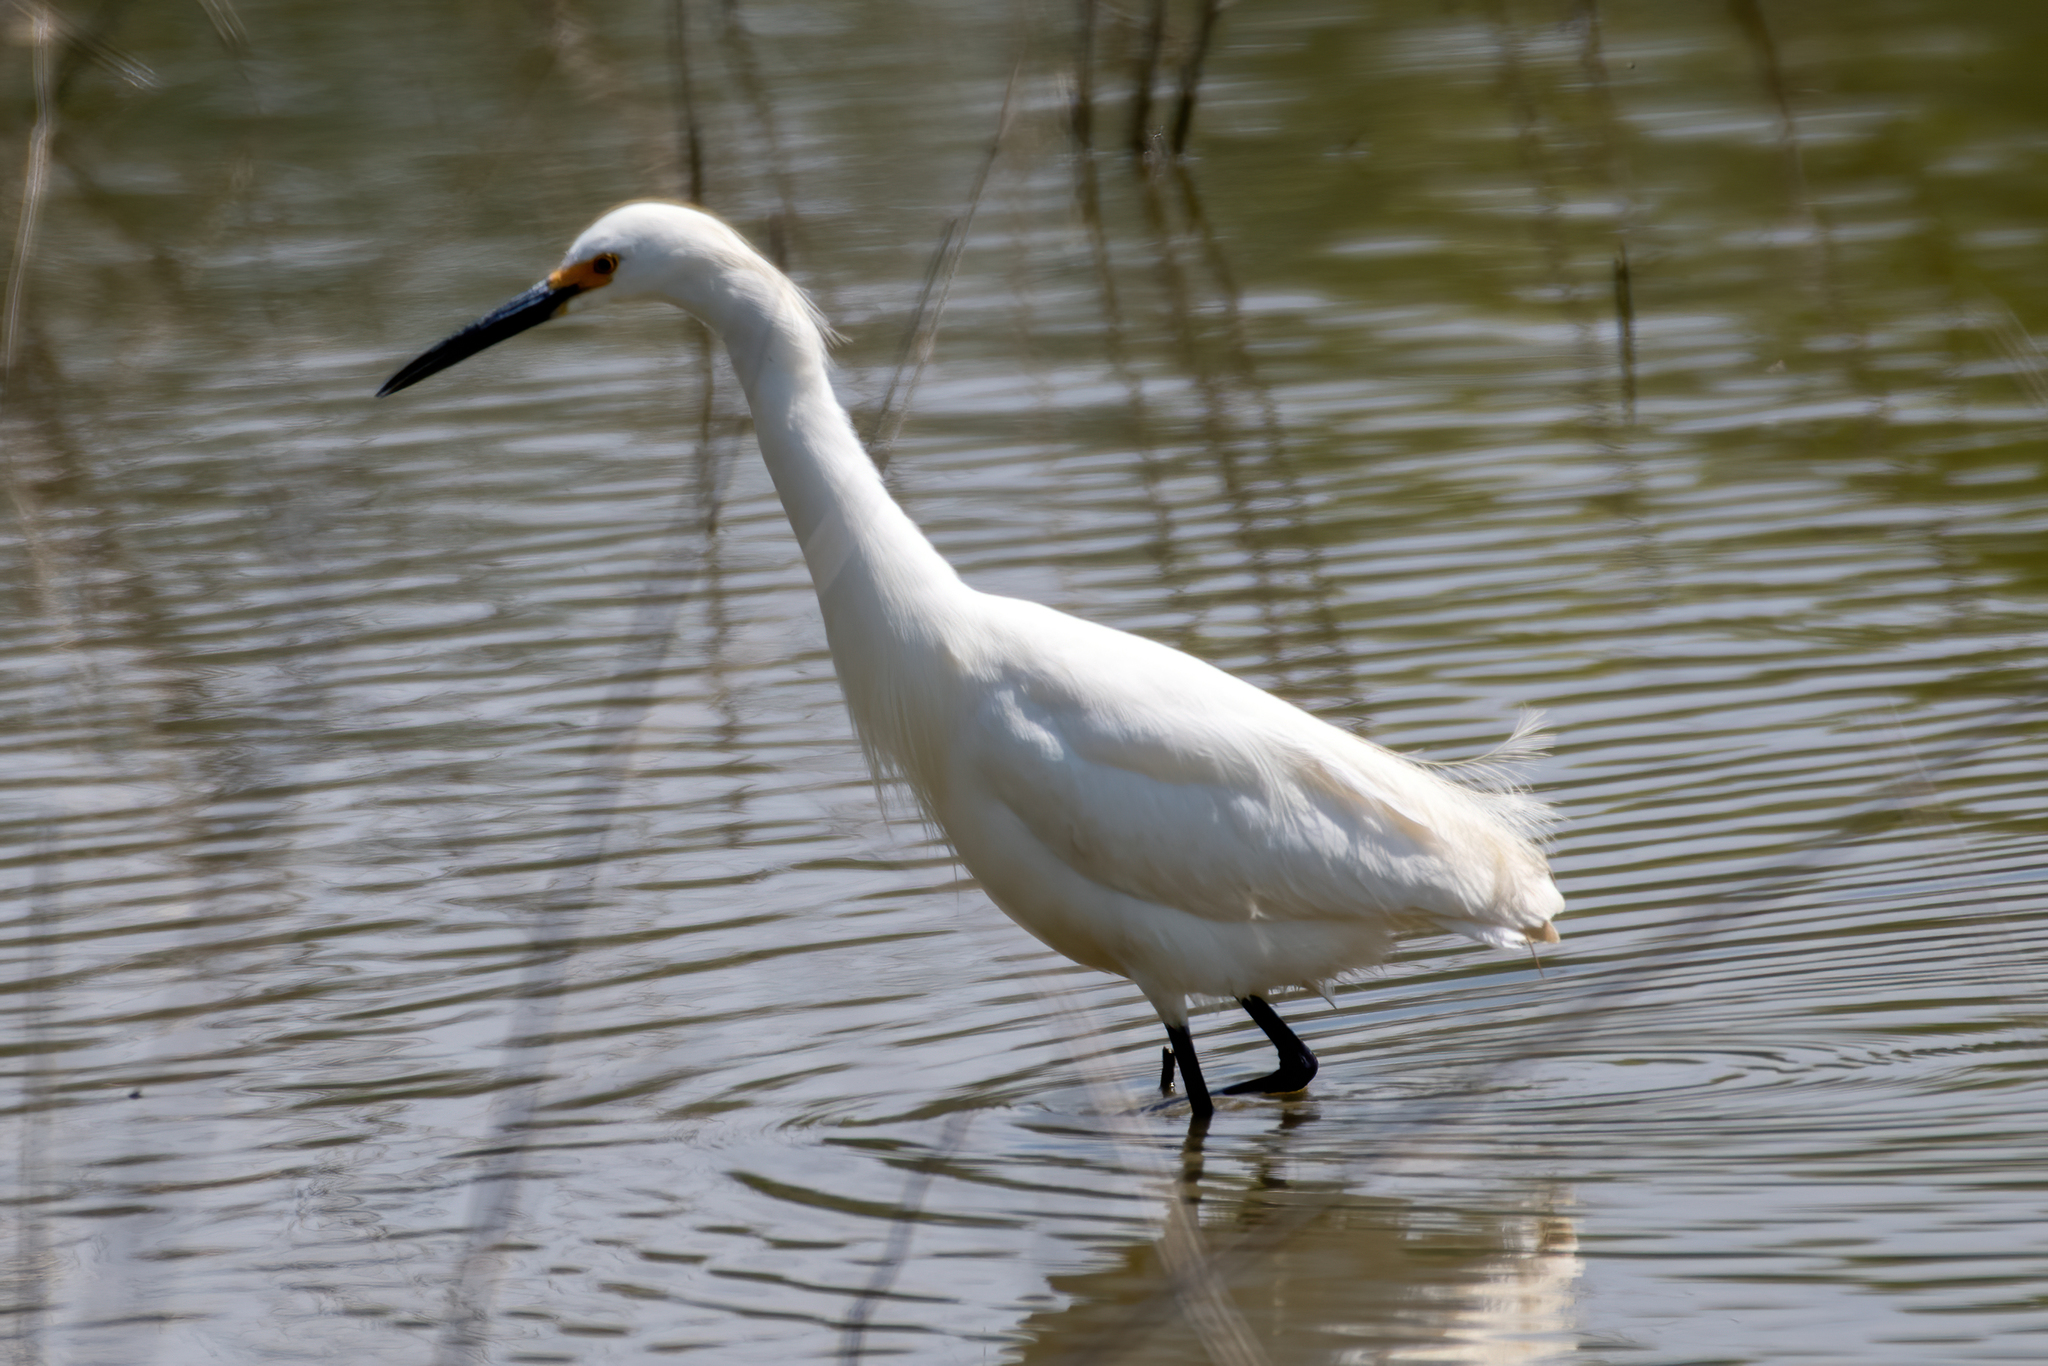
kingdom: Animalia
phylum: Chordata
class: Aves
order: Pelecaniformes
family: Ardeidae
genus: Egretta
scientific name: Egretta thula
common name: Snowy egret
